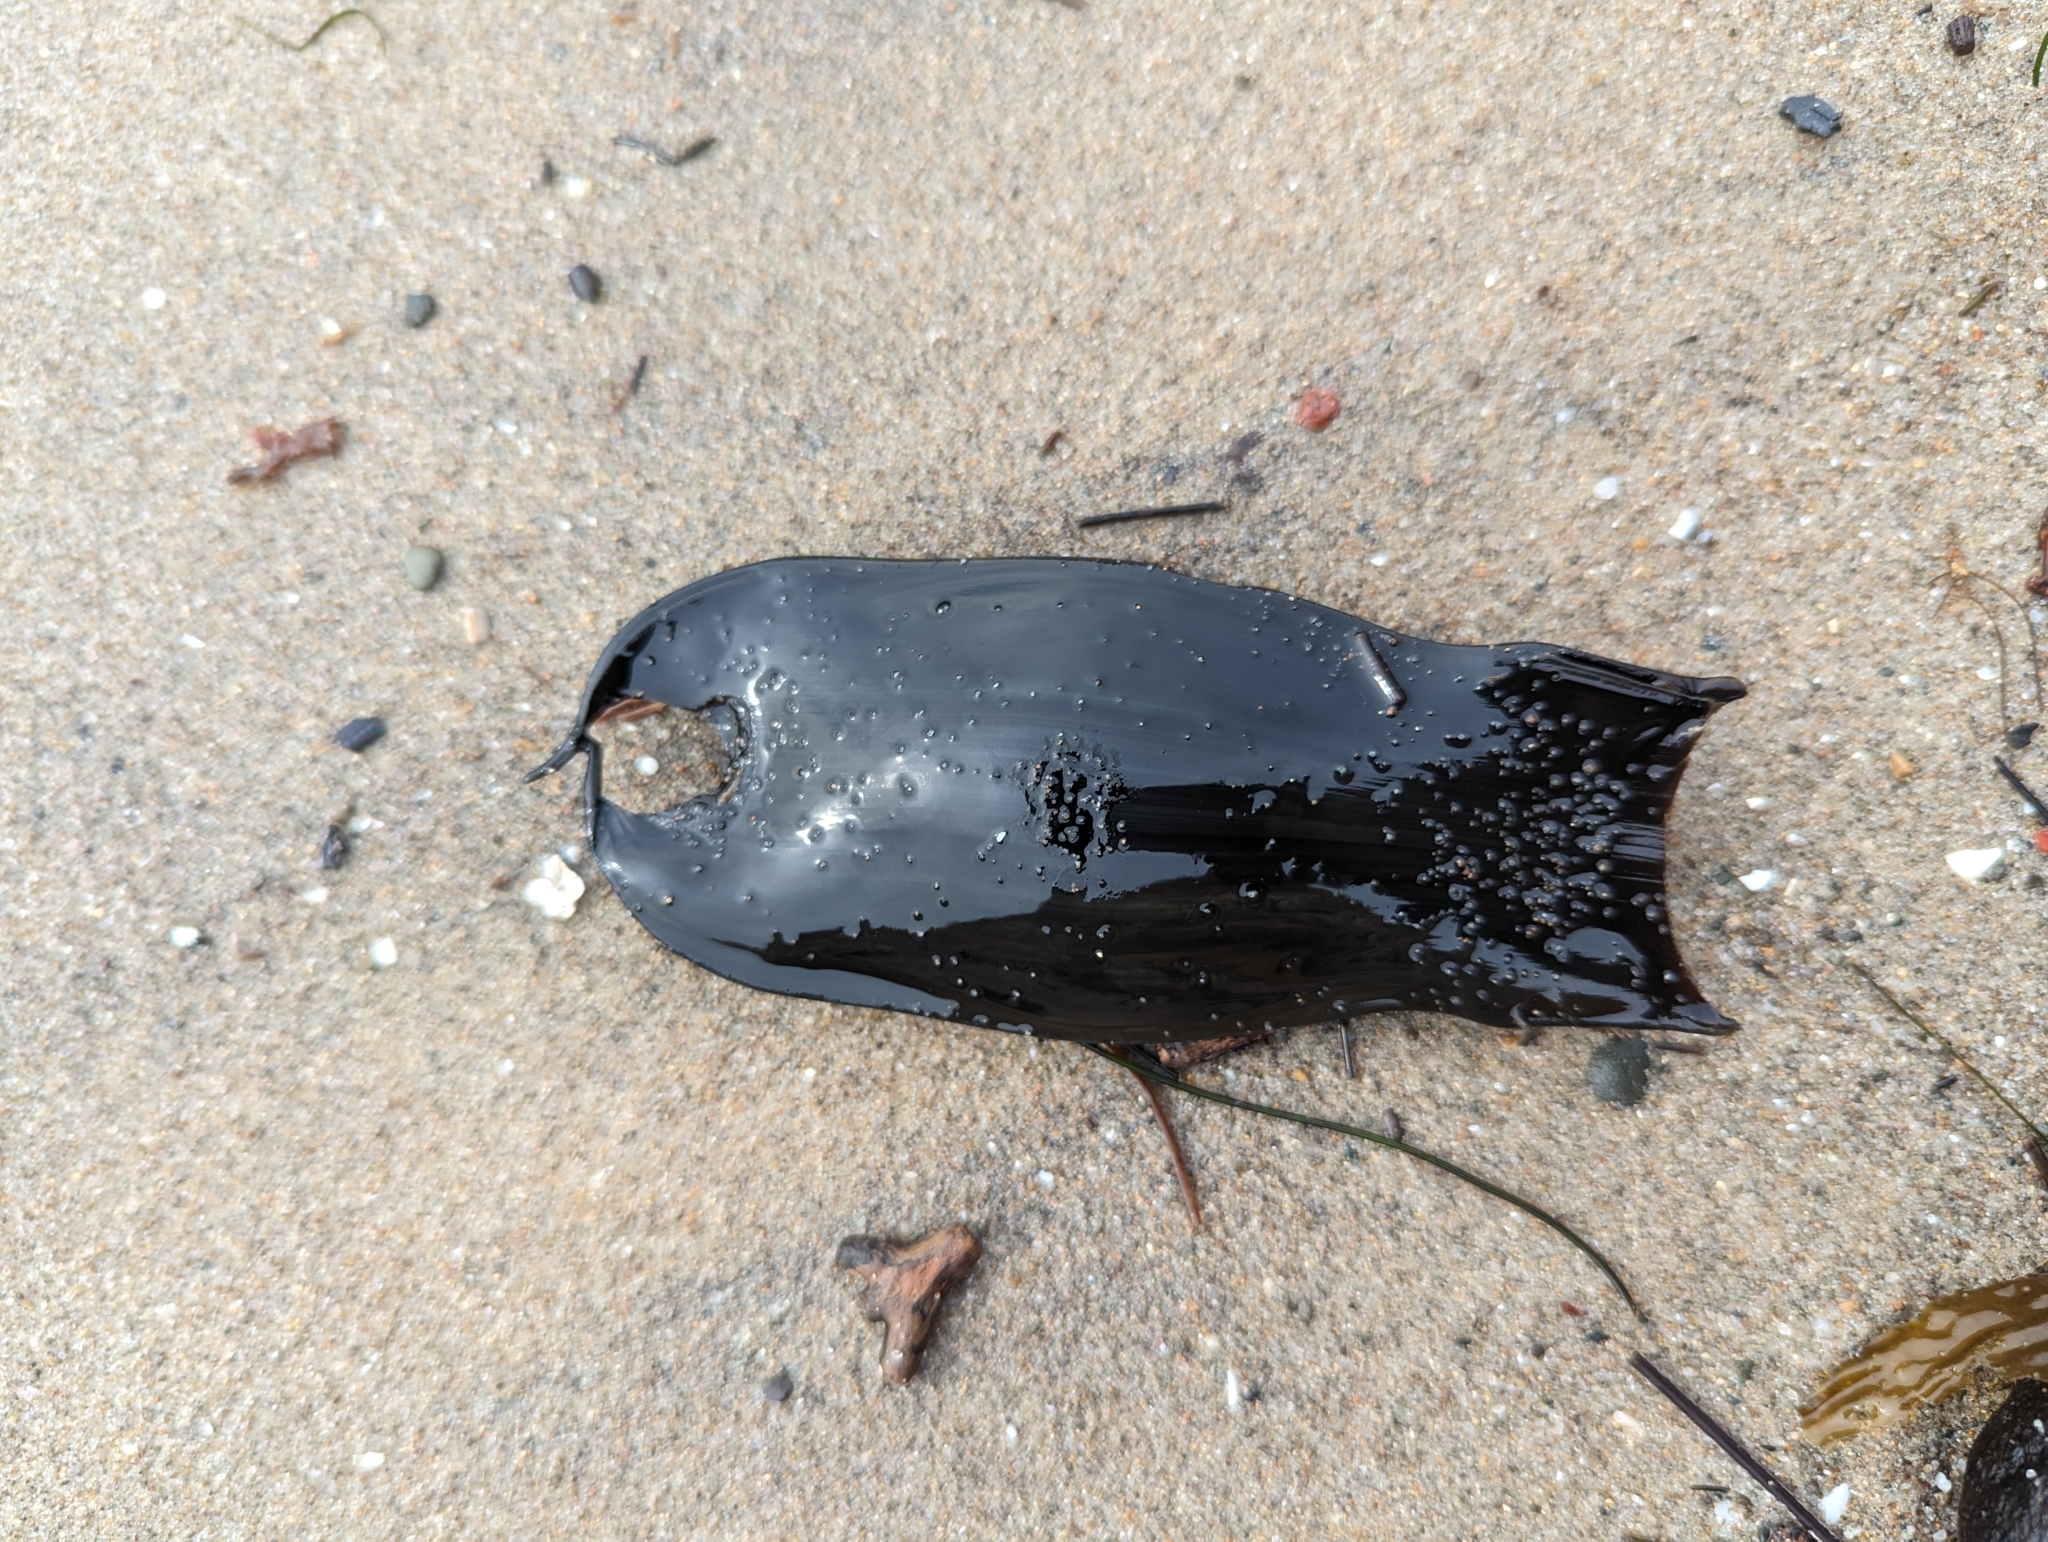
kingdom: Animalia
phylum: Chordata
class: Elasmobranchii
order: Carcharhiniformes
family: Scyliorhinidae
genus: Cephaloscyllium
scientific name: Cephaloscyllium ventriosum
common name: Swell shark
